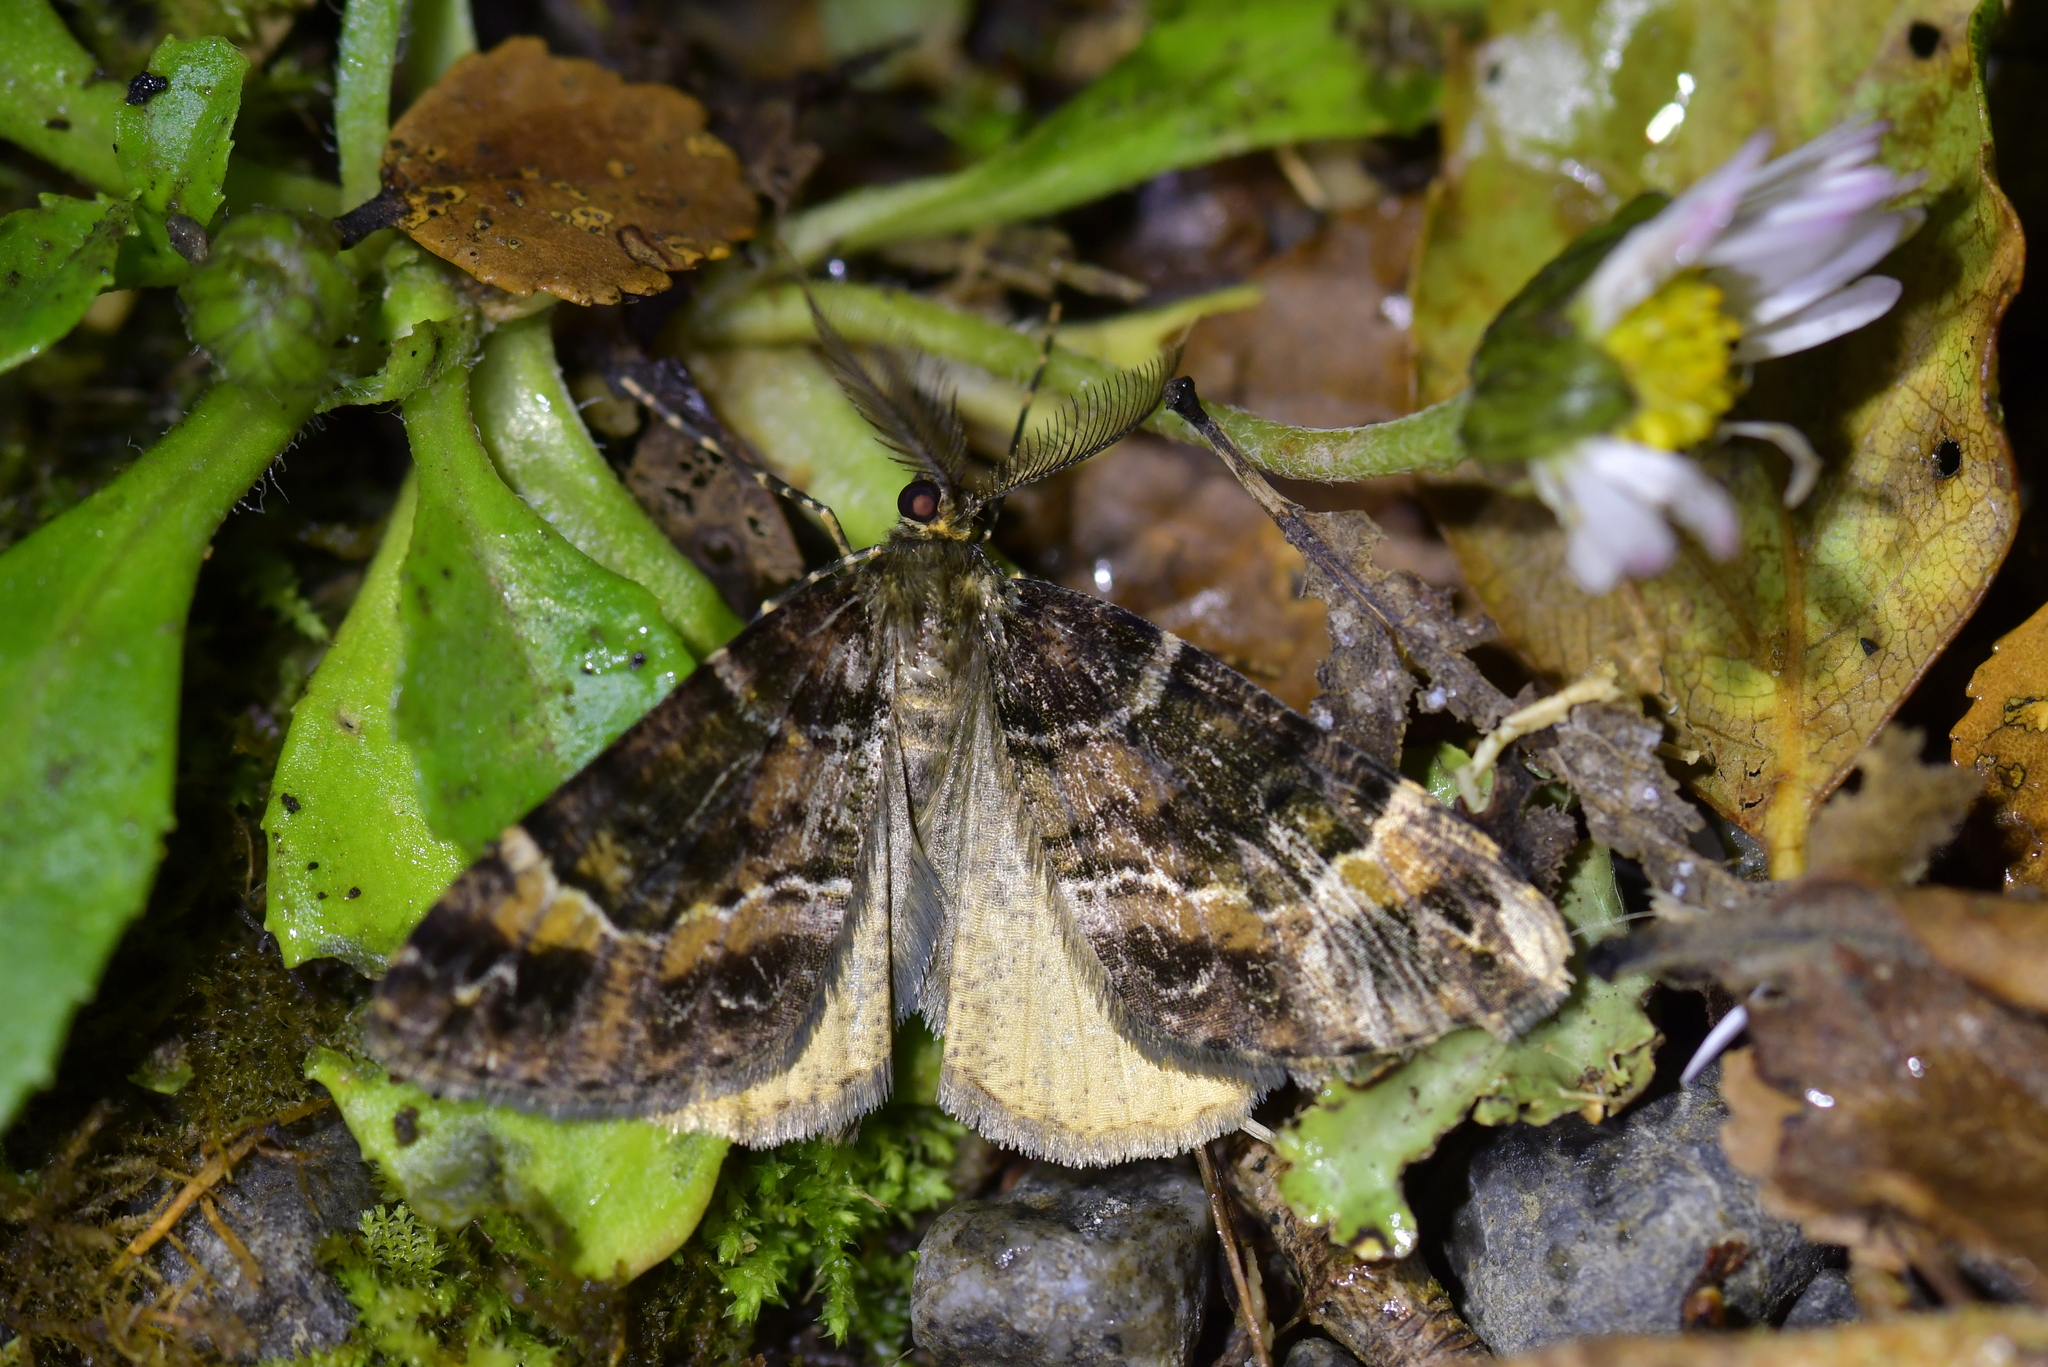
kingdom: Animalia
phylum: Arthropoda
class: Insecta
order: Lepidoptera
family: Geometridae
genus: Pseudocoremia
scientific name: Pseudocoremia productata
